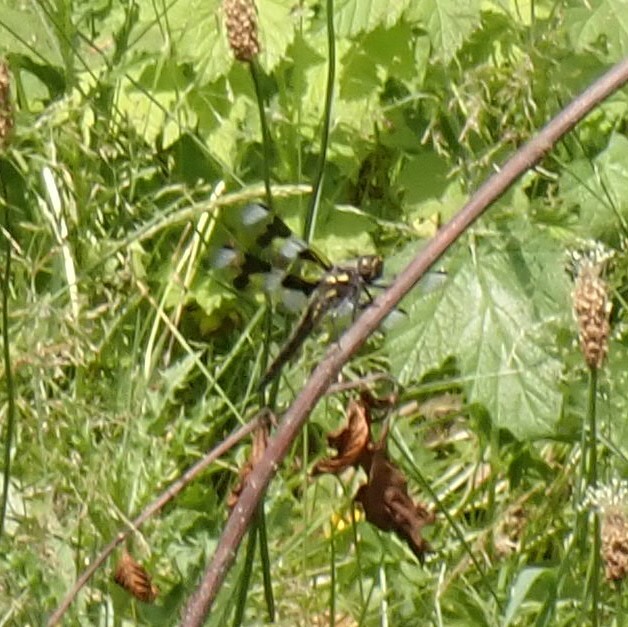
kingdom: Animalia
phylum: Arthropoda
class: Insecta
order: Odonata
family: Libellulidae
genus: Libellula
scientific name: Libellula forensis
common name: Eight-spotted skimmer
